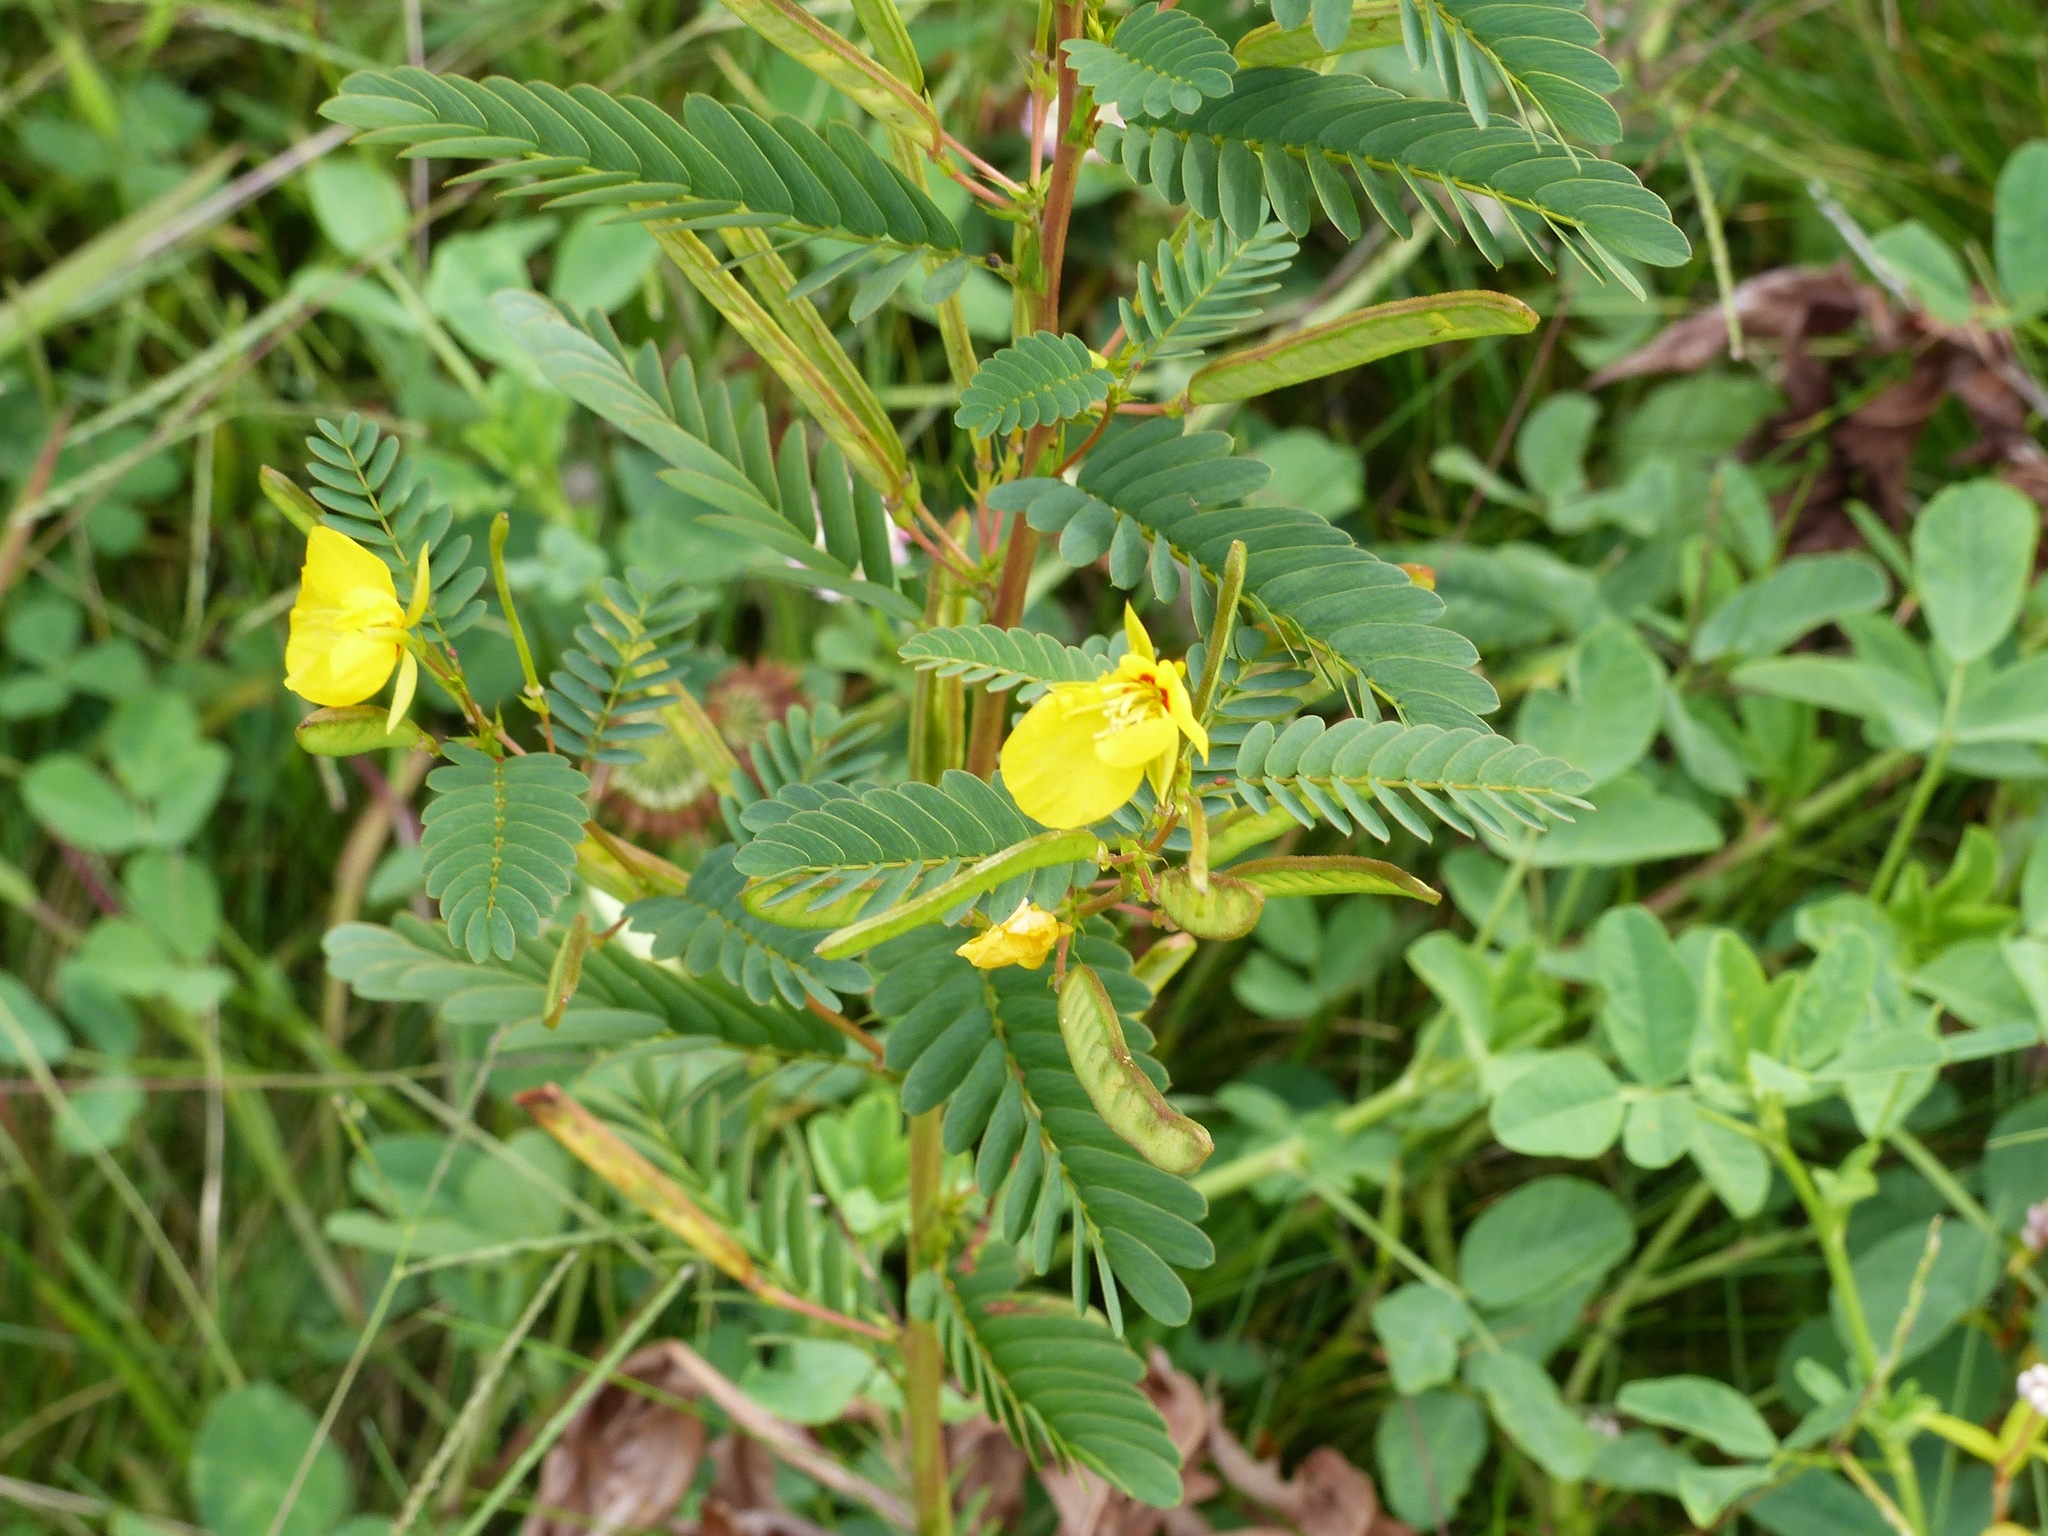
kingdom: Plantae
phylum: Tracheophyta
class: Magnoliopsida
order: Fabales
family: Fabaceae
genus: Chamaecrista
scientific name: Chamaecrista fasciculata
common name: Golden cassia
